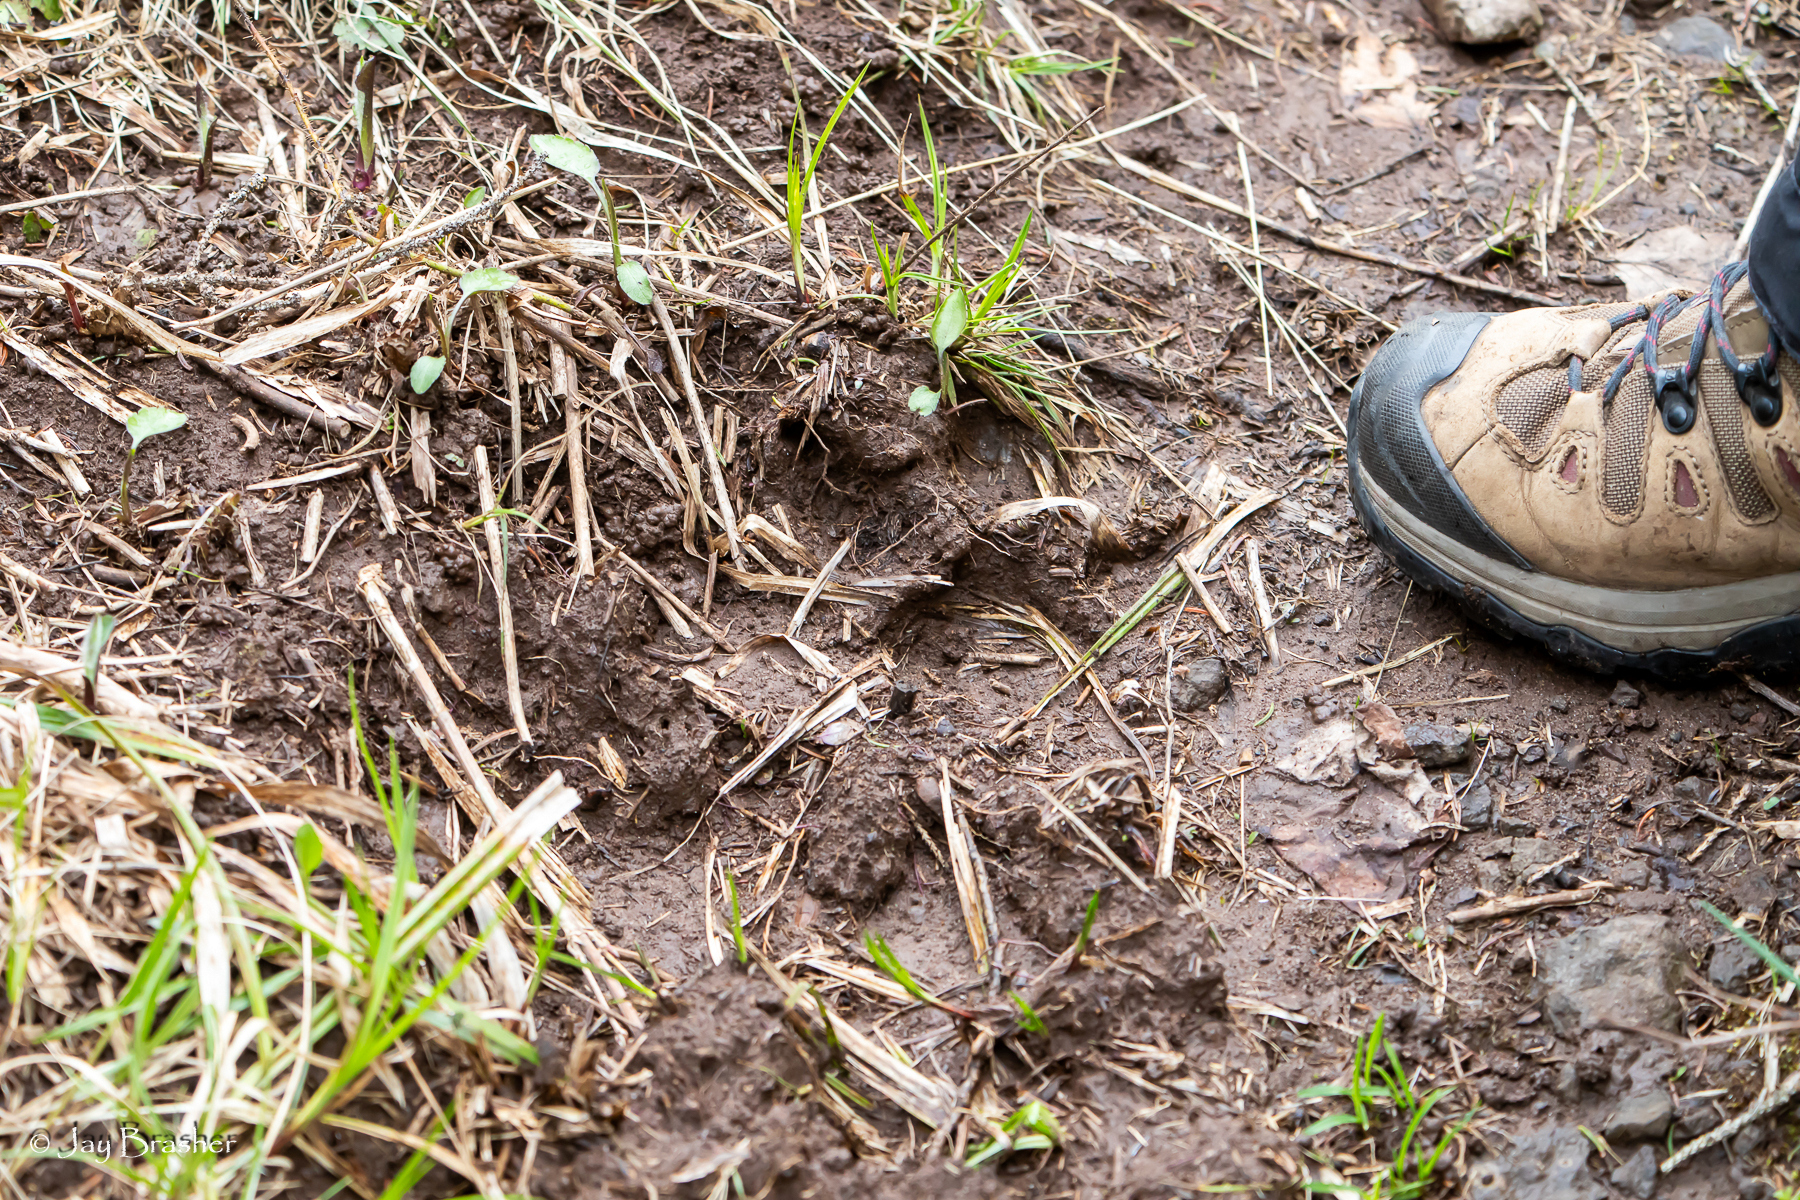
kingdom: Animalia
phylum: Chordata
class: Mammalia
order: Carnivora
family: Canidae
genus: Canis
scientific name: Canis lupus
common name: Gray wolf
